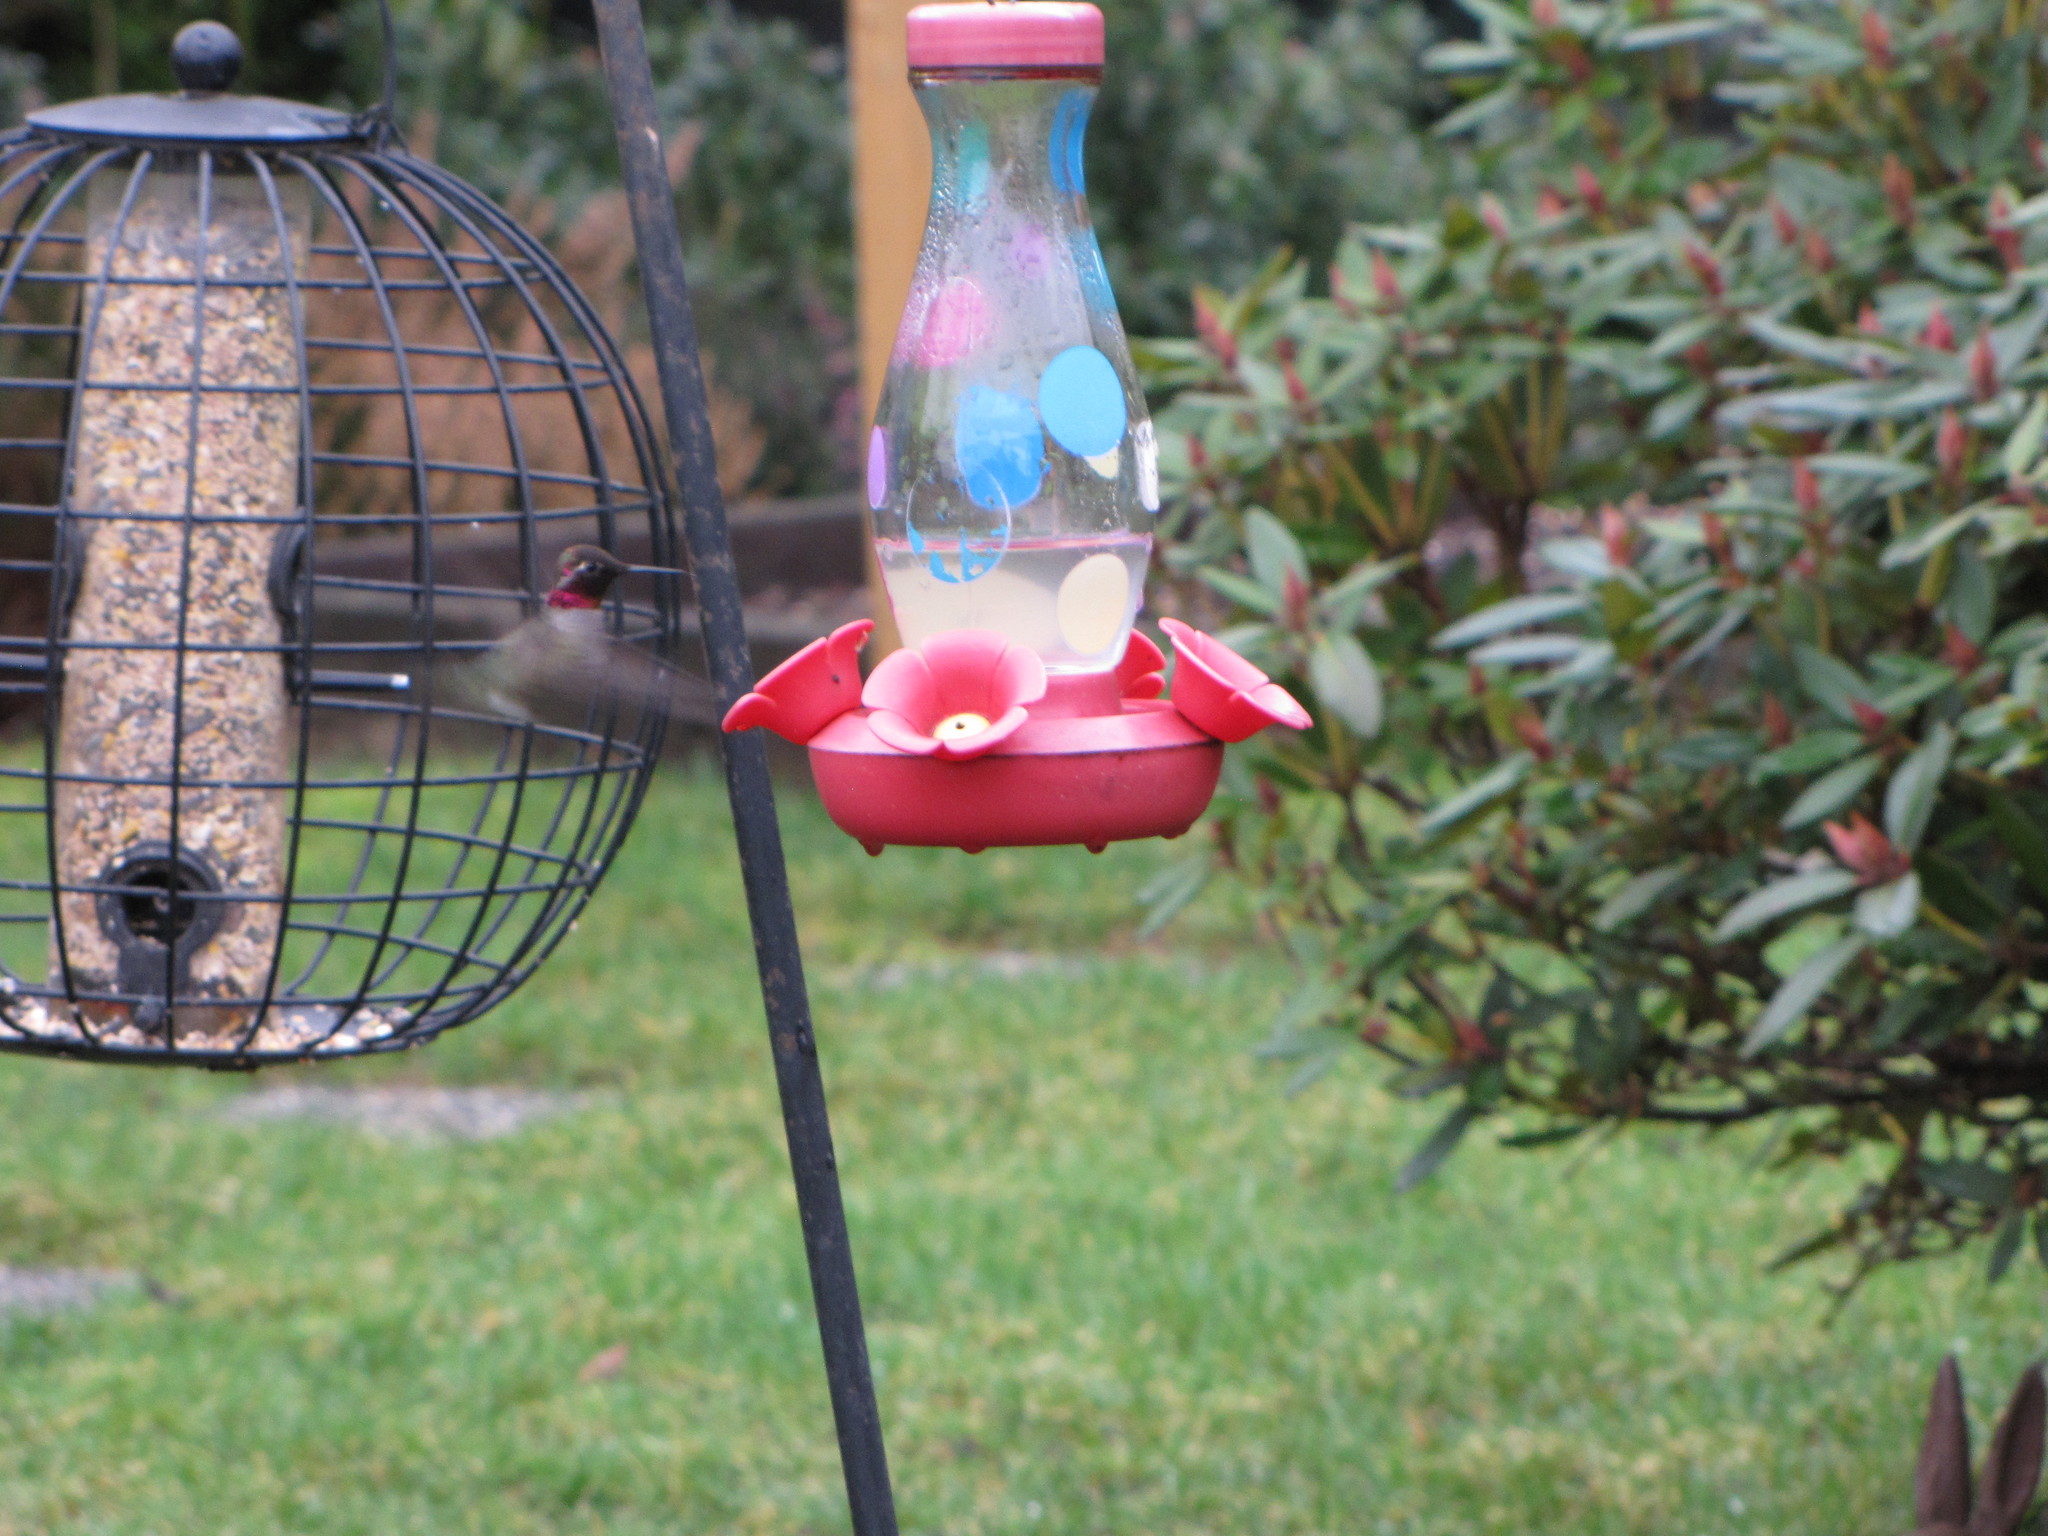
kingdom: Animalia
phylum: Chordata
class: Aves
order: Apodiformes
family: Trochilidae
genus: Calypte
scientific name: Calypte anna
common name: Anna's hummingbird
